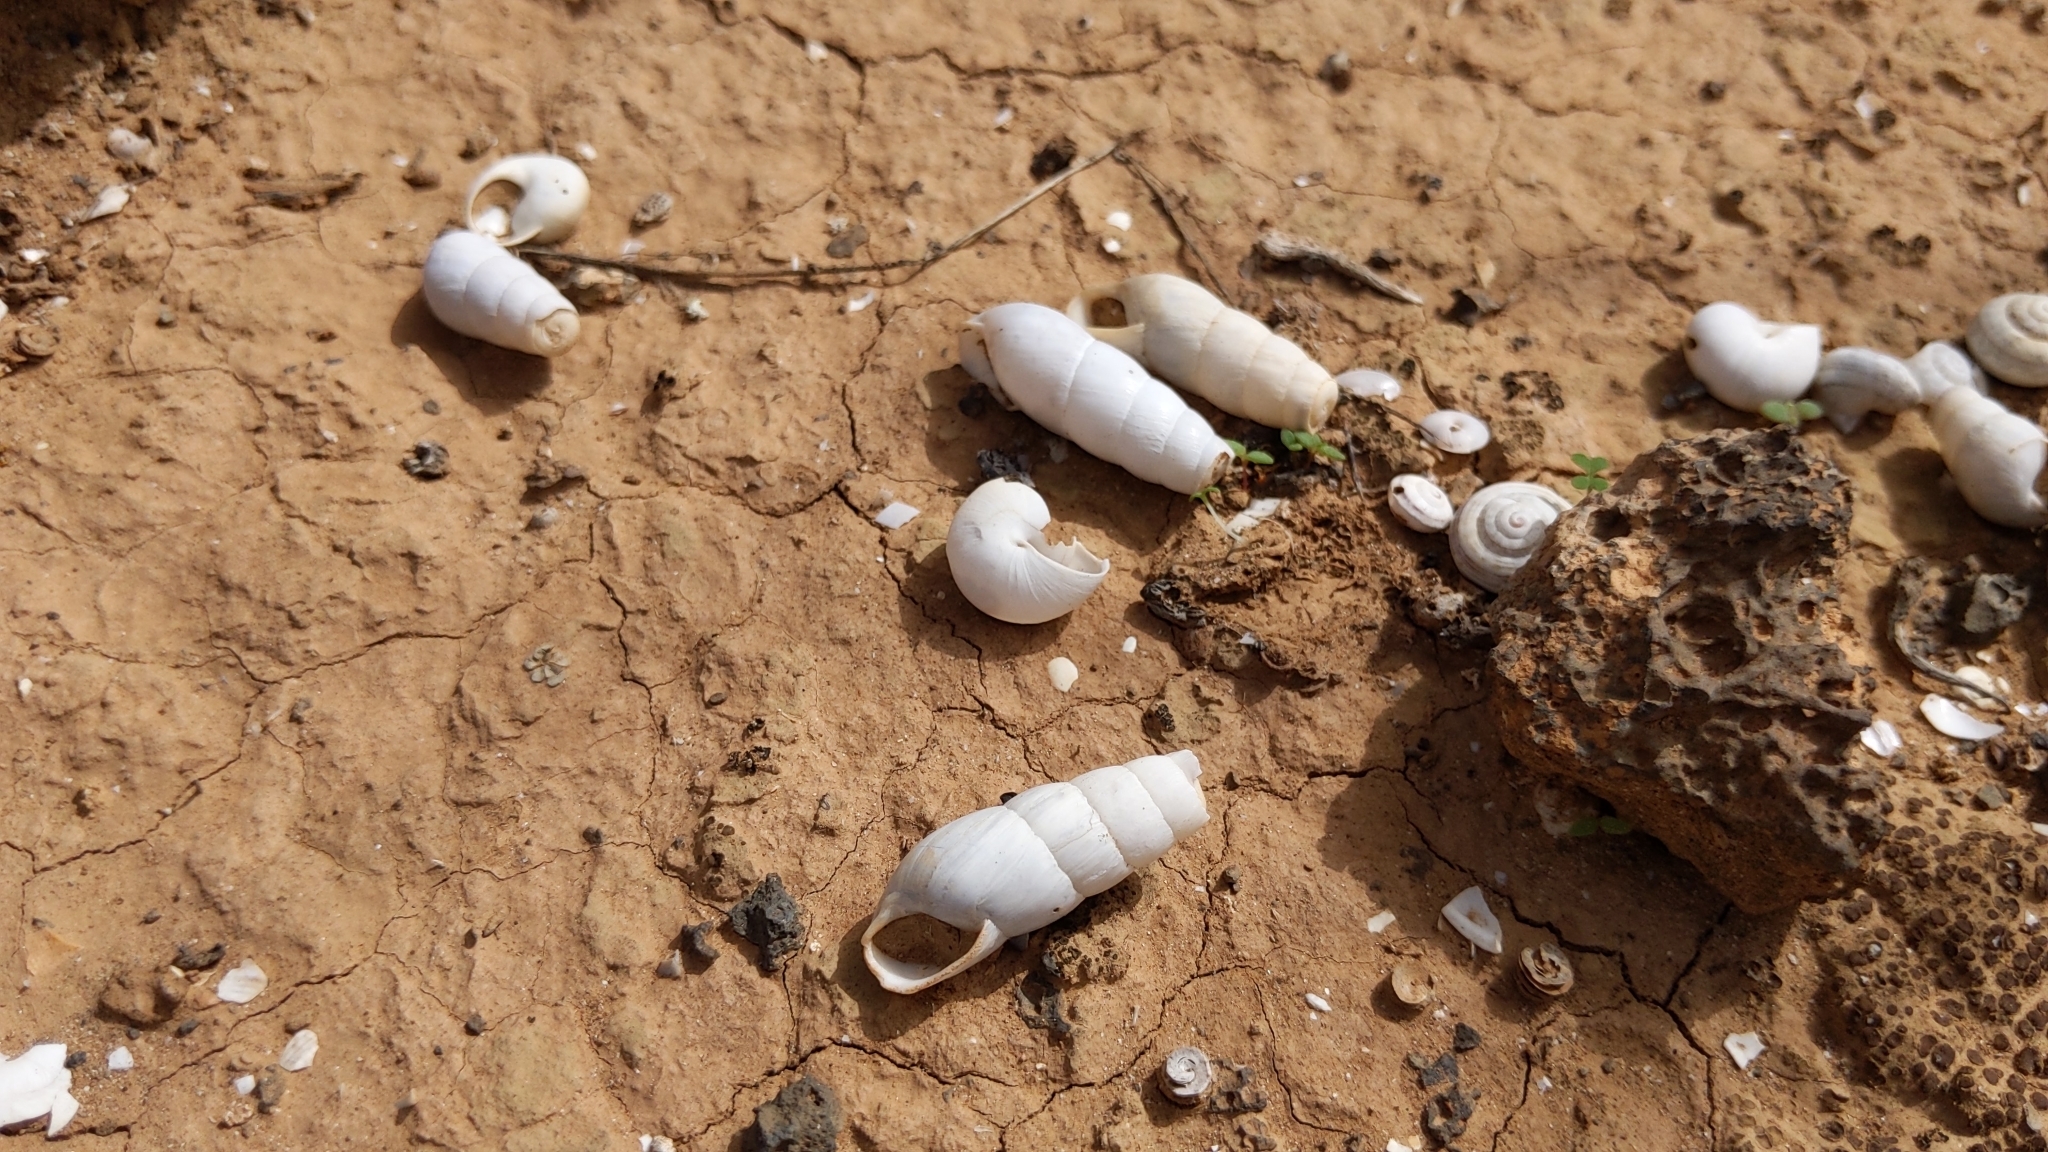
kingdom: Animalia
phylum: Mollusca
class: Gastropoda
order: Stylommatophora
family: Achatinidae
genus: Rumina
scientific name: Rumina decollata
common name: Decollate snail
